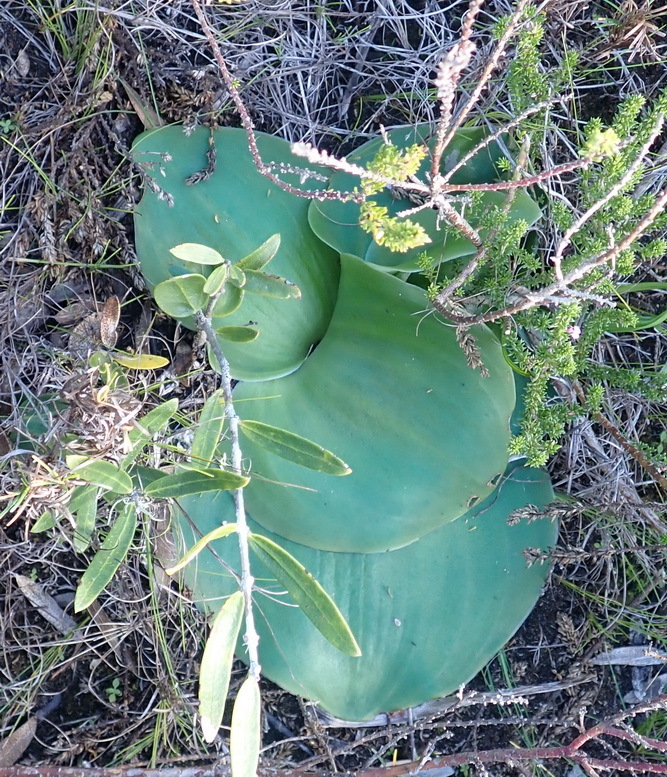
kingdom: Plantae
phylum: Tracheophyta
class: Liliopsida
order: Asparagales
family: Orchidaceae
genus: Satyrium
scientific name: Satyrium princeps
